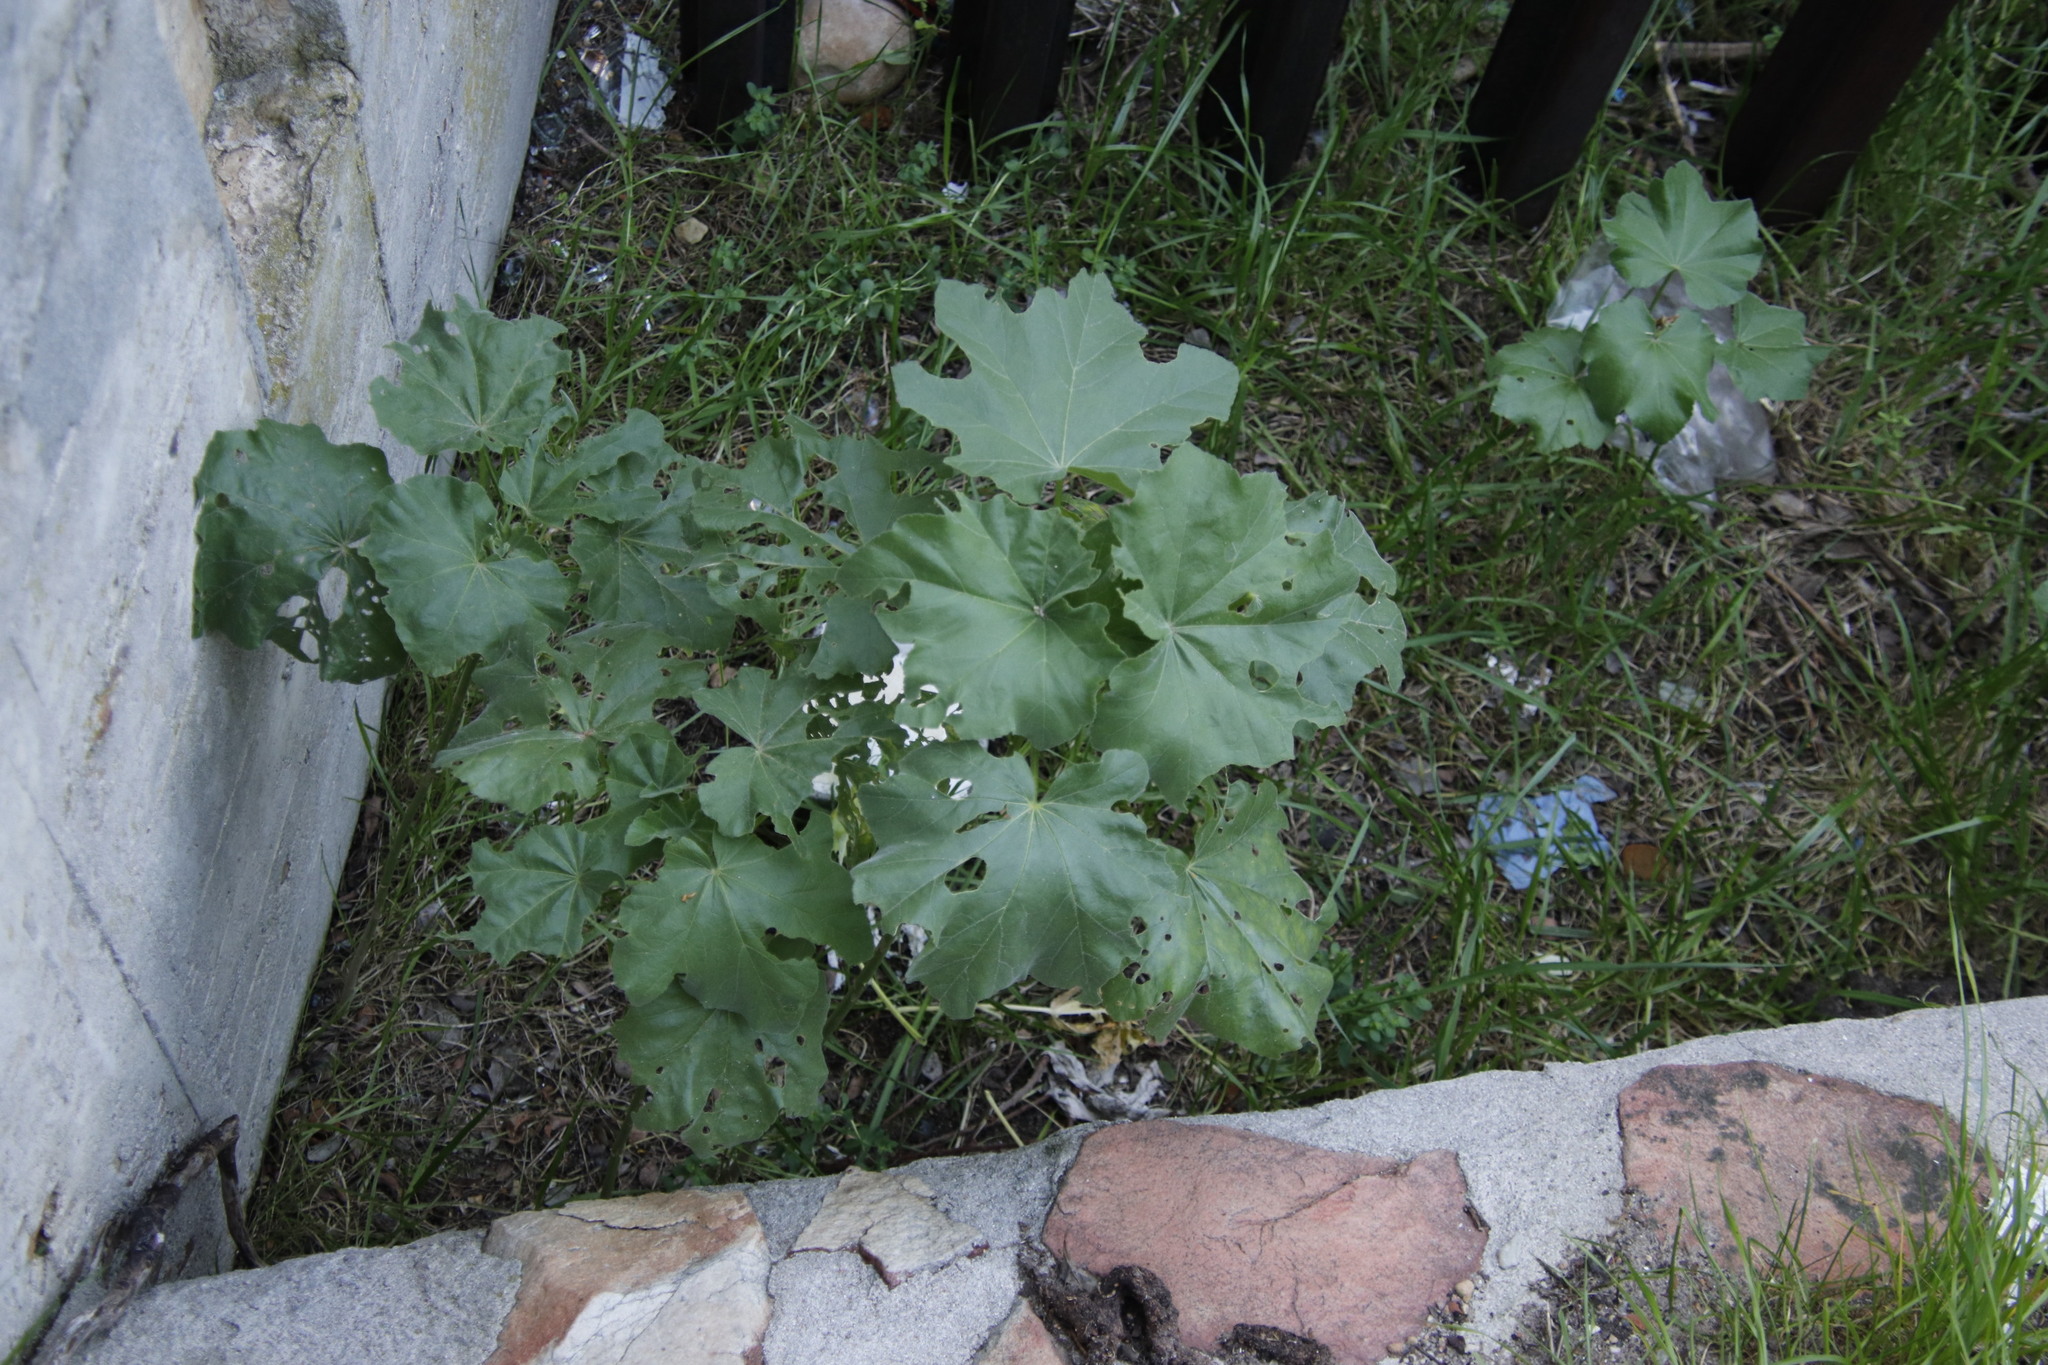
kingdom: Plantae
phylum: Tracheophyta
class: Magnoliopsida
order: Malvales
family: Malvaceae
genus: Malva
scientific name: Malva arborea
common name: Tree mallow
